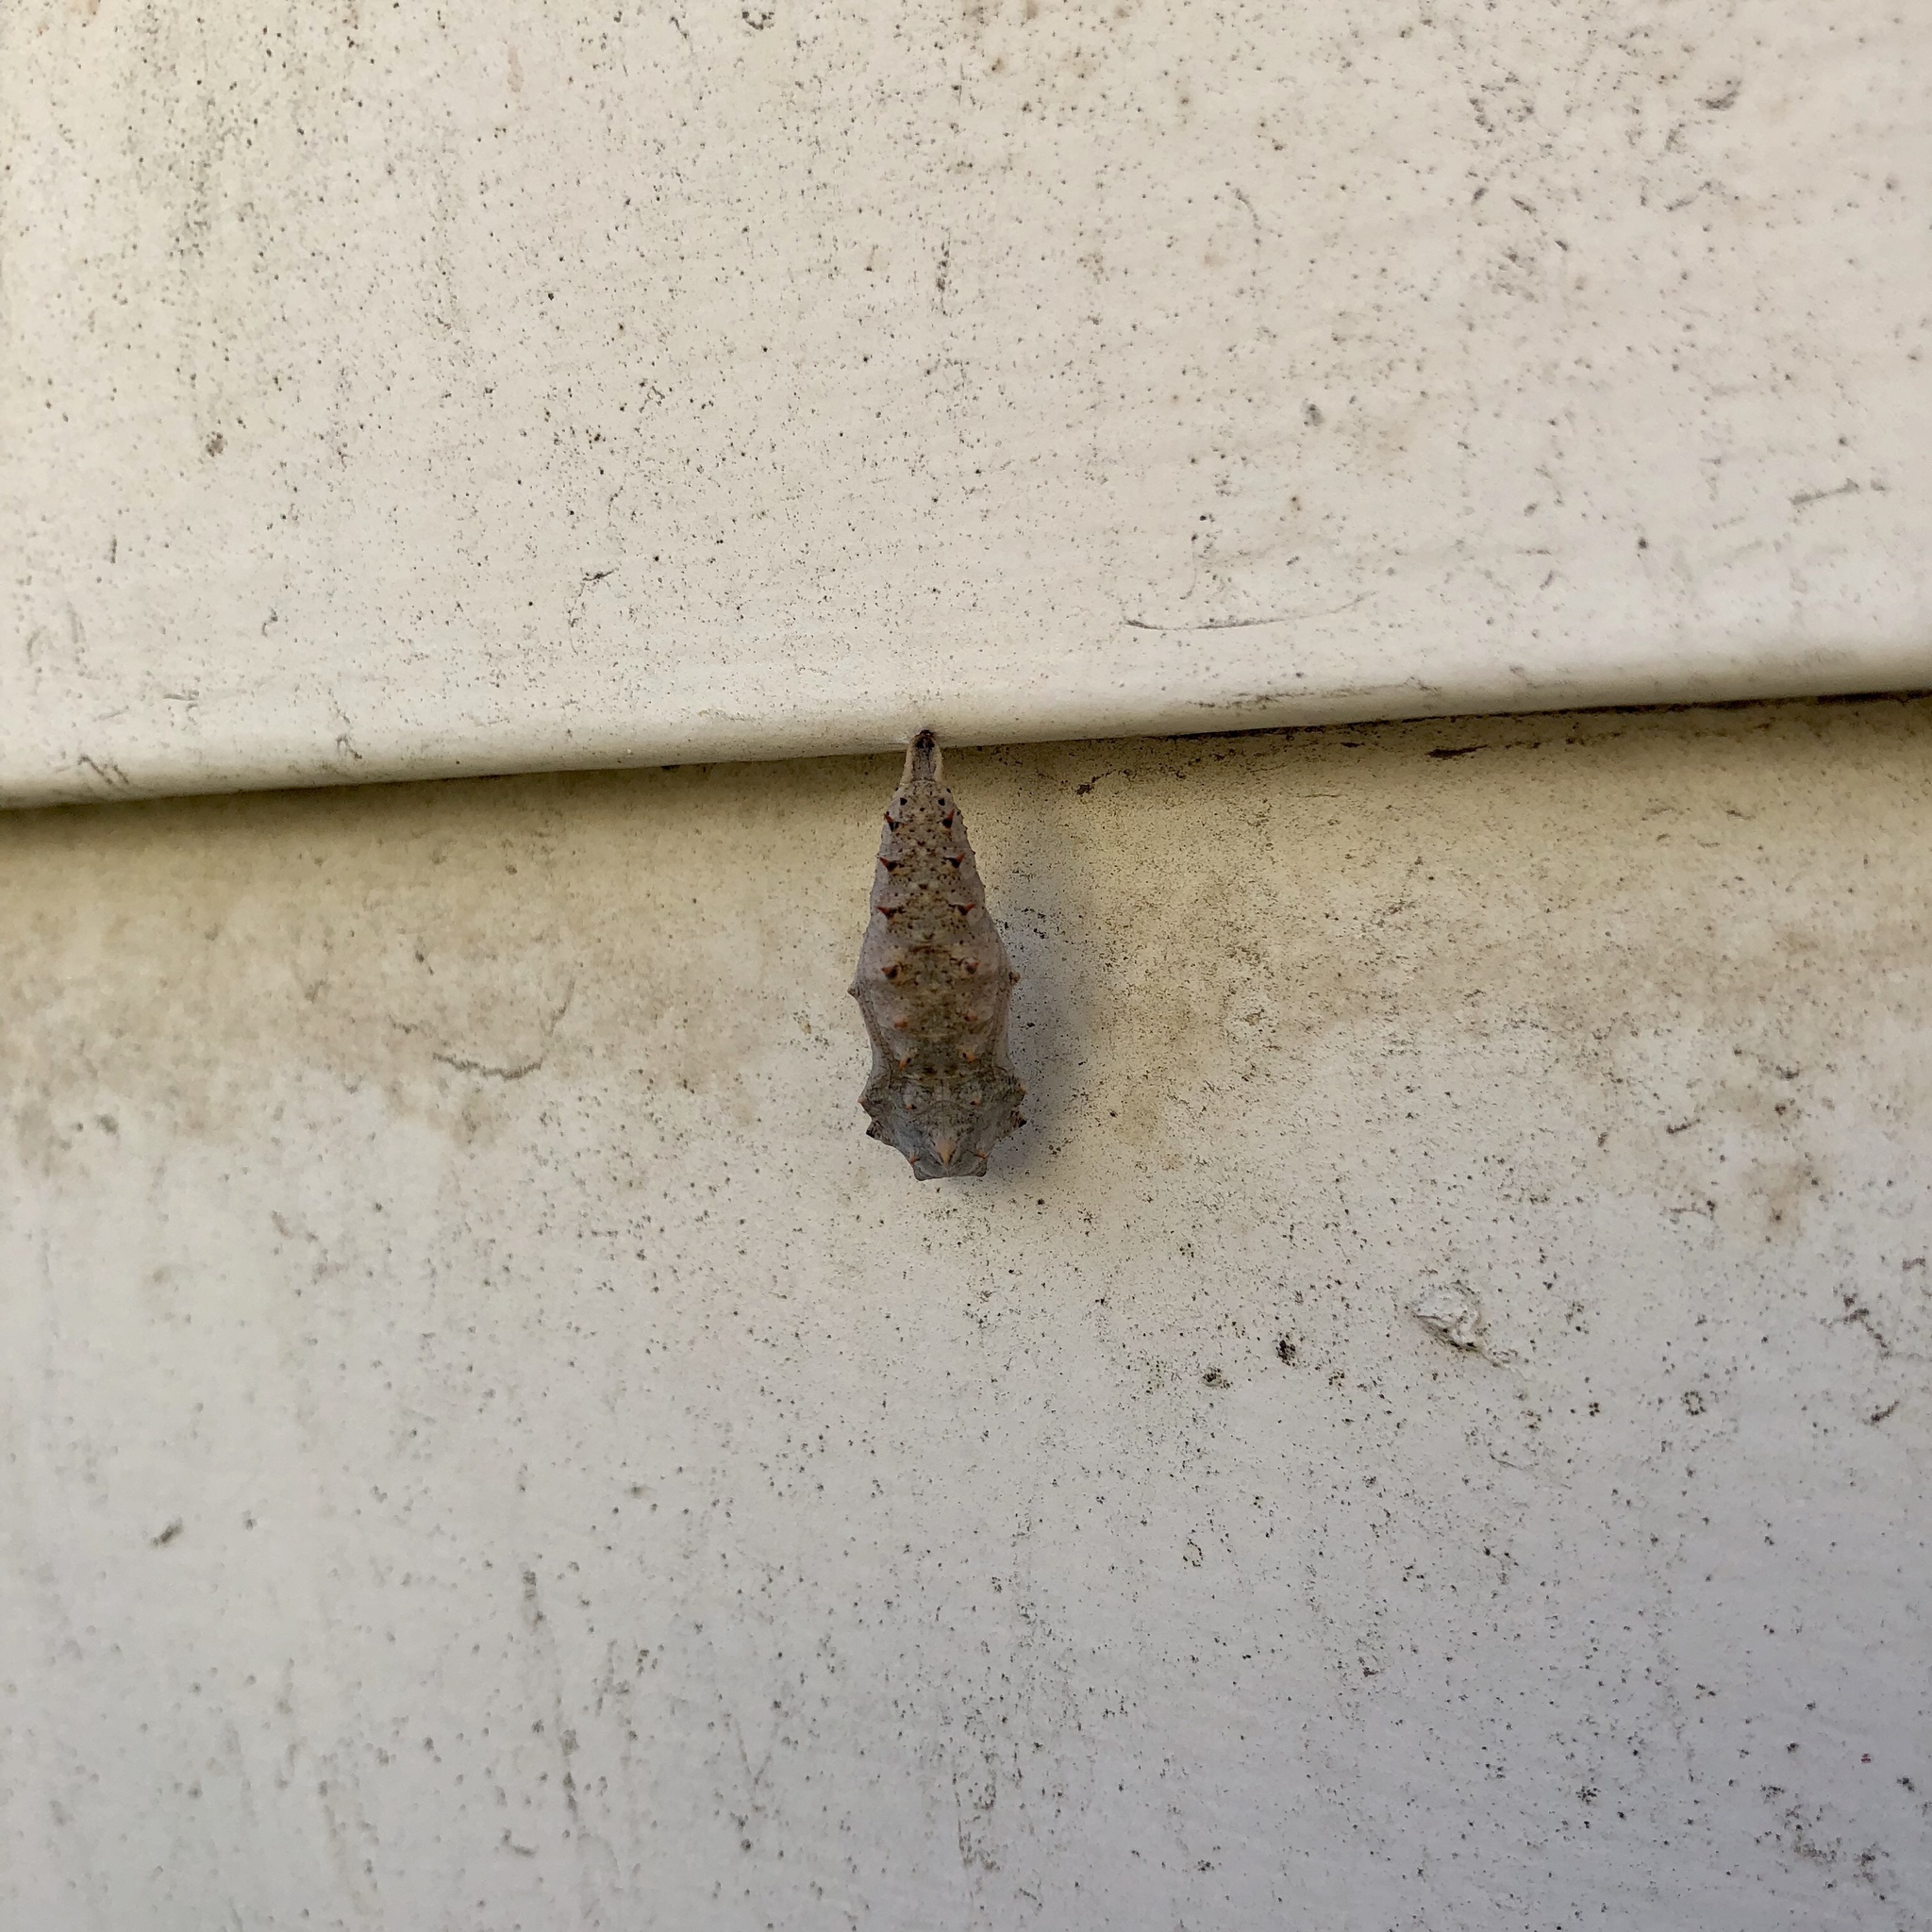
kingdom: Animalia
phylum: Arthropoda
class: Insecta
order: Lepidoptera
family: Nymphalidae
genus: Nymphalis
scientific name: Nymphalis antiopa
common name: Camberwell beauty
